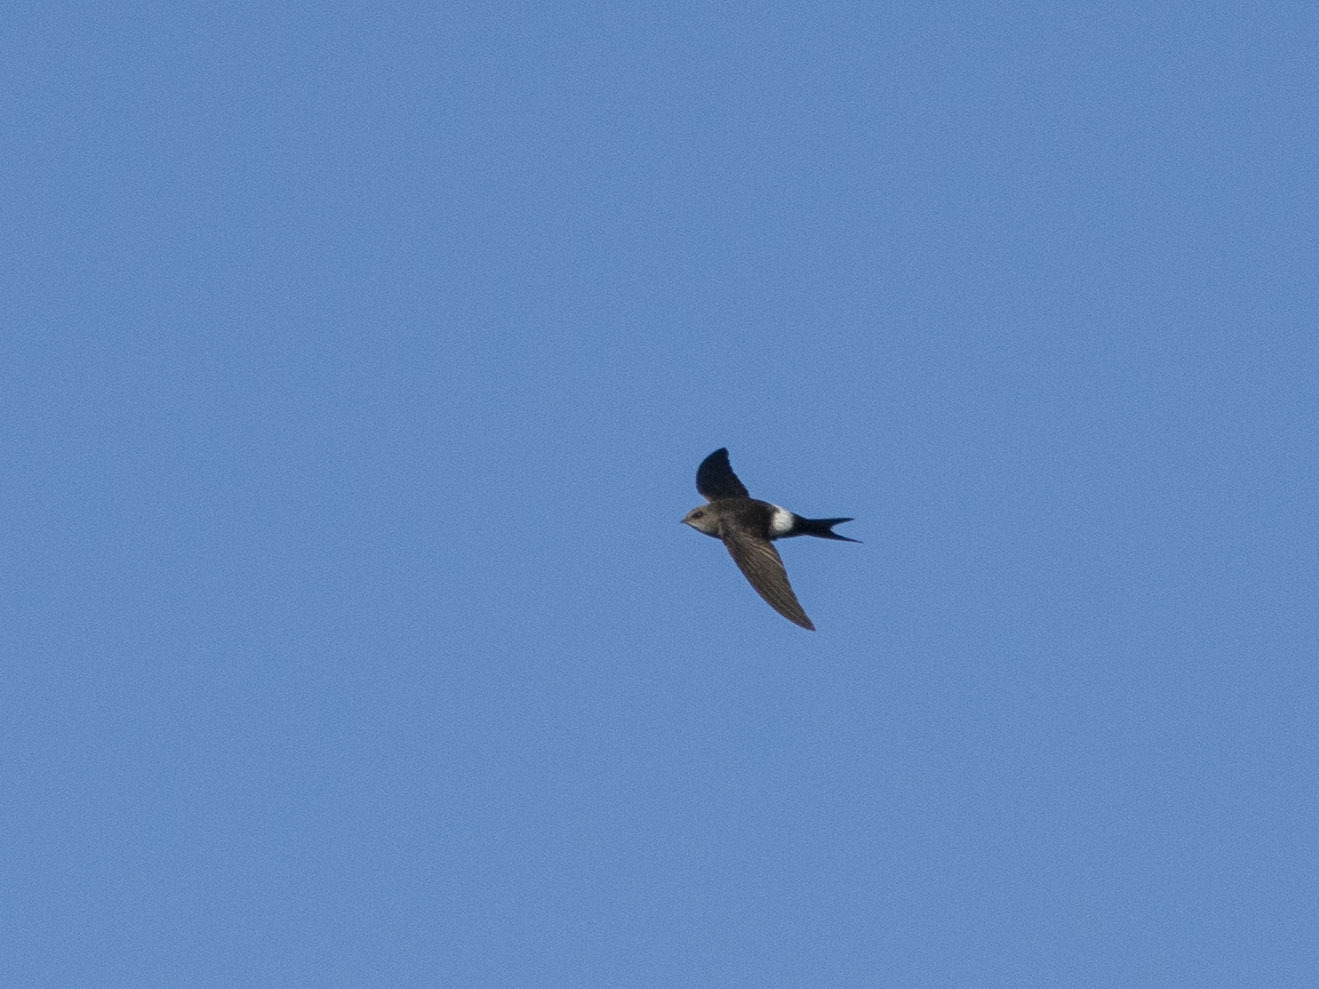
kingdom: Animalia
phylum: Chordata
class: Aves
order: Apodiformes
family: Apodidae
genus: Apus
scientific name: Apus pacificus
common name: Pacific swift
